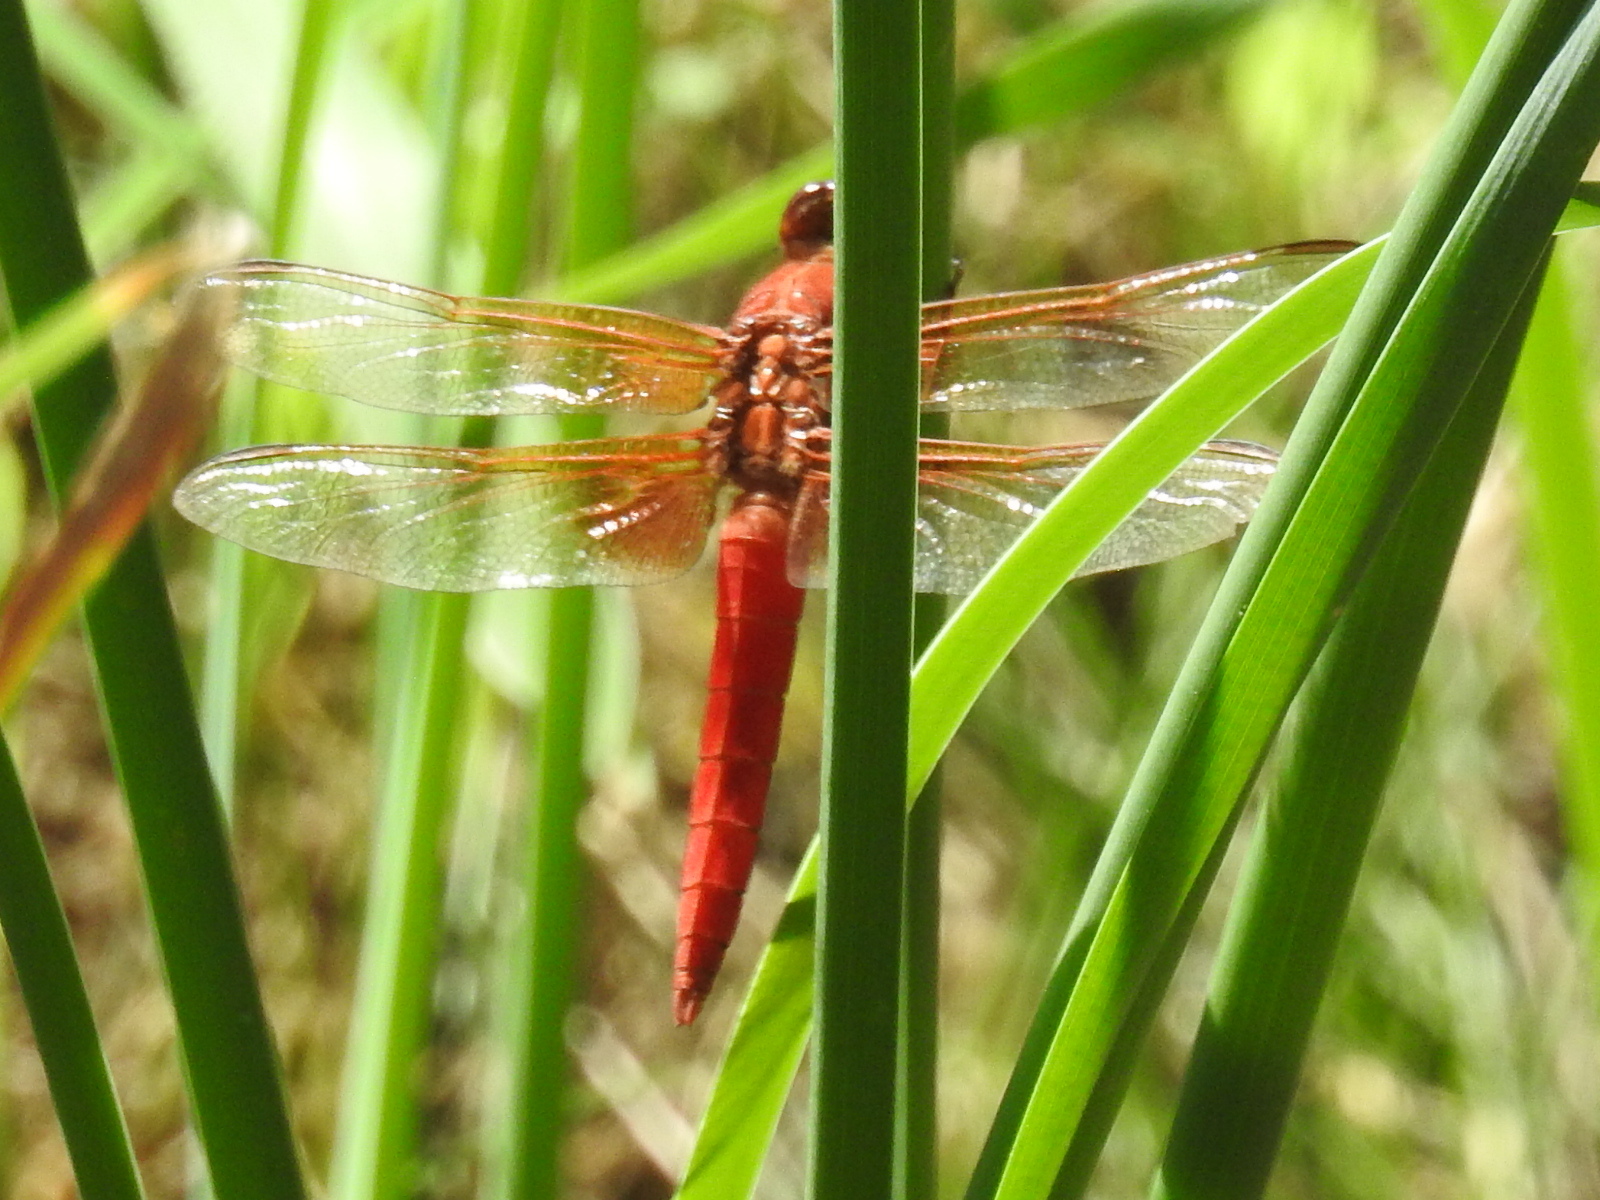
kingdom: Animalia
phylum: Arthropoda
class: Insecta
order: Odonata
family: Libellulidae
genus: Libellula
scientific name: Libellula croceipennis
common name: Neon skimmer
